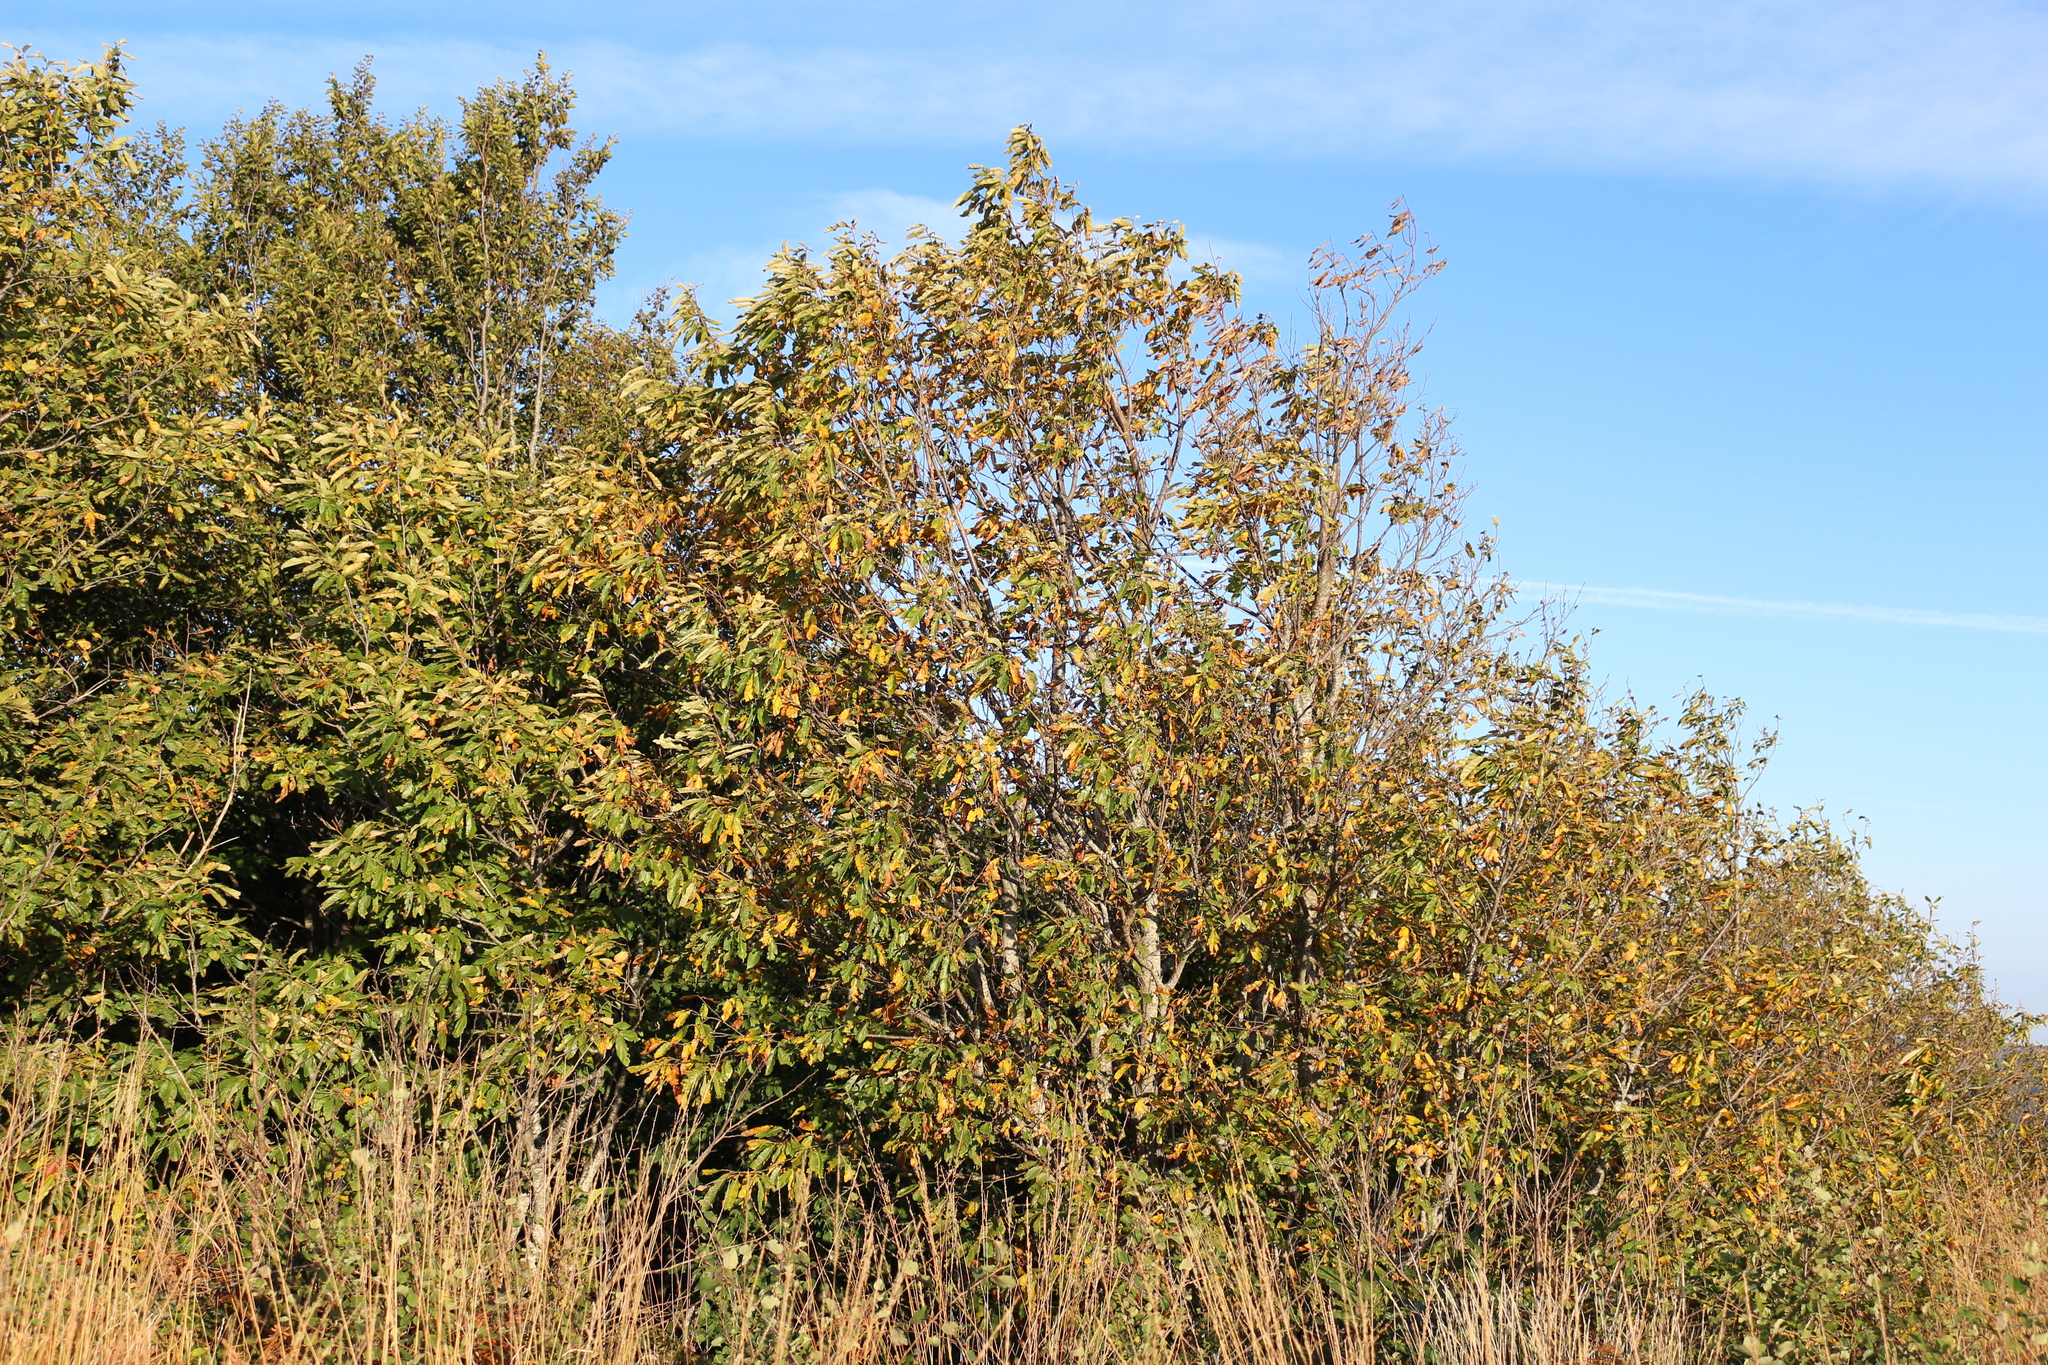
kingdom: Plantae
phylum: Tracheophyta
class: Magnoliopsida
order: Fagales
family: Fagaceae
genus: Castanea
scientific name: Castanea sativa
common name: Sweet chestnut
